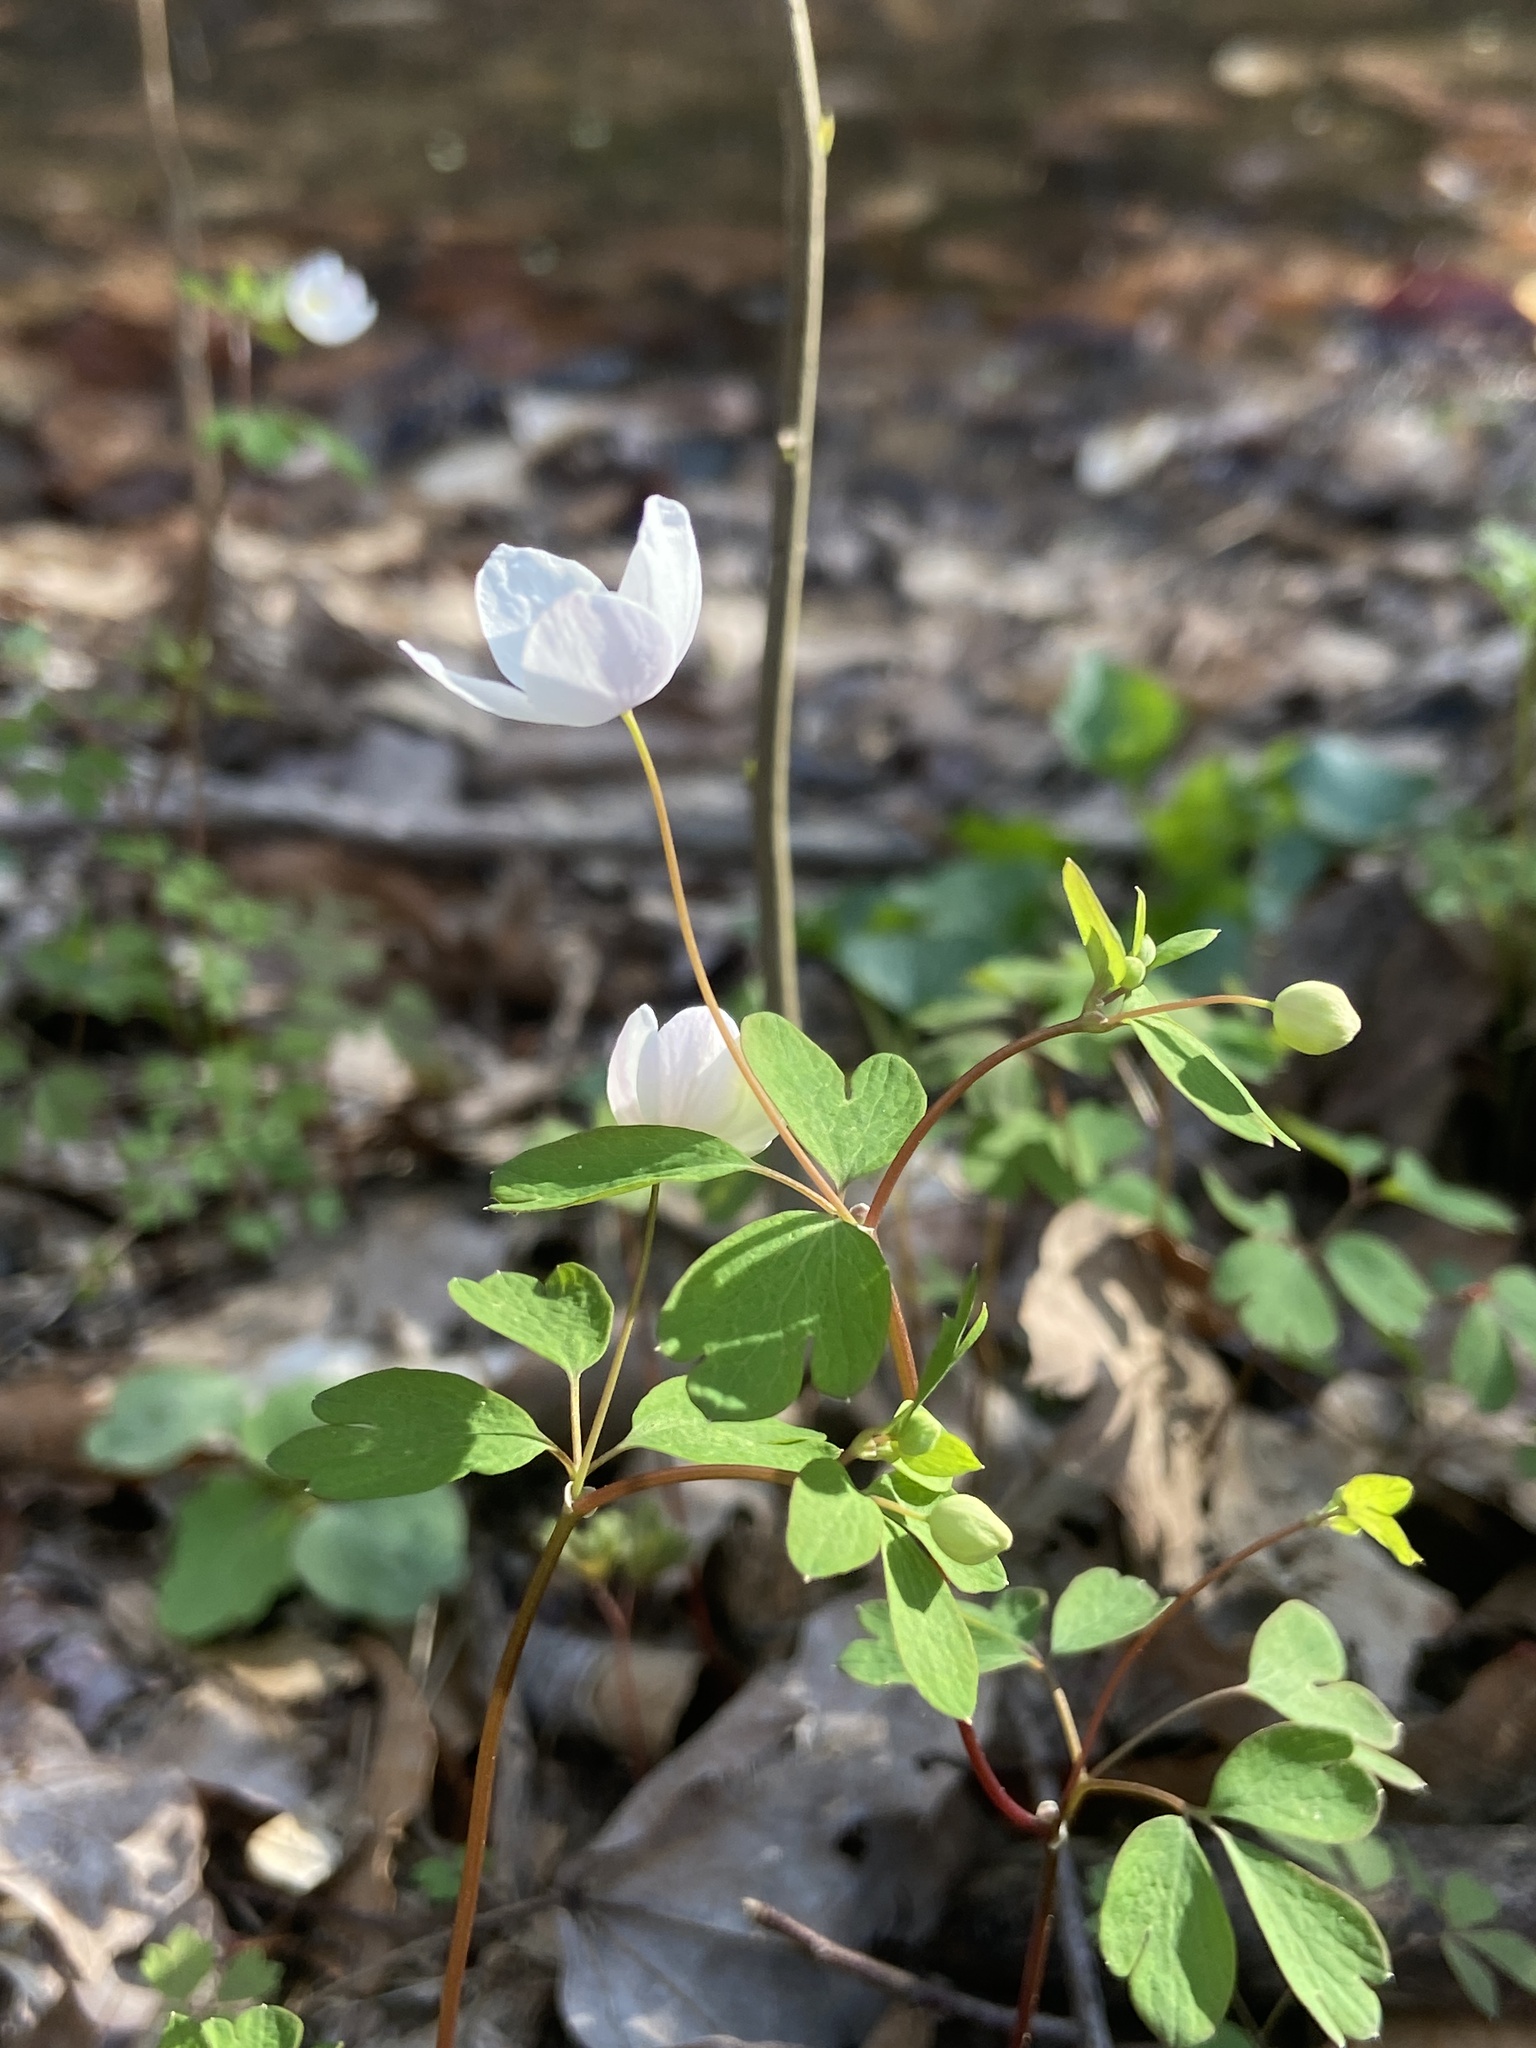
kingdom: Plantae
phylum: Tracheophyta
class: Magnoliopsida
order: Ranunculales
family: Ranunculaceae
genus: Enemion
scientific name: Enemion biternatum
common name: Eastern false rue-anemone
